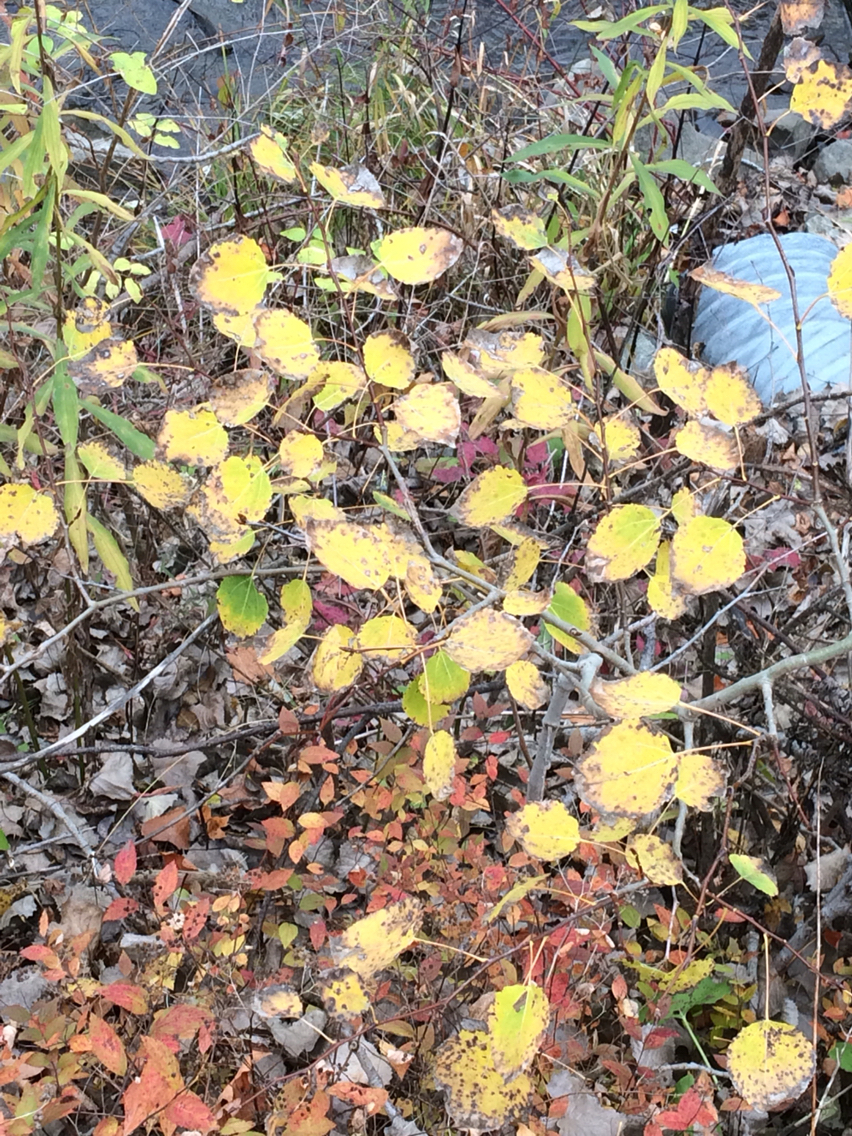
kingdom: Plantae
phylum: Tracheophyta
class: Magnoliopsida
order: Malpighiales
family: Salicaceae
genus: Populus
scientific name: Populus tremuloides
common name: Quaking aspen
